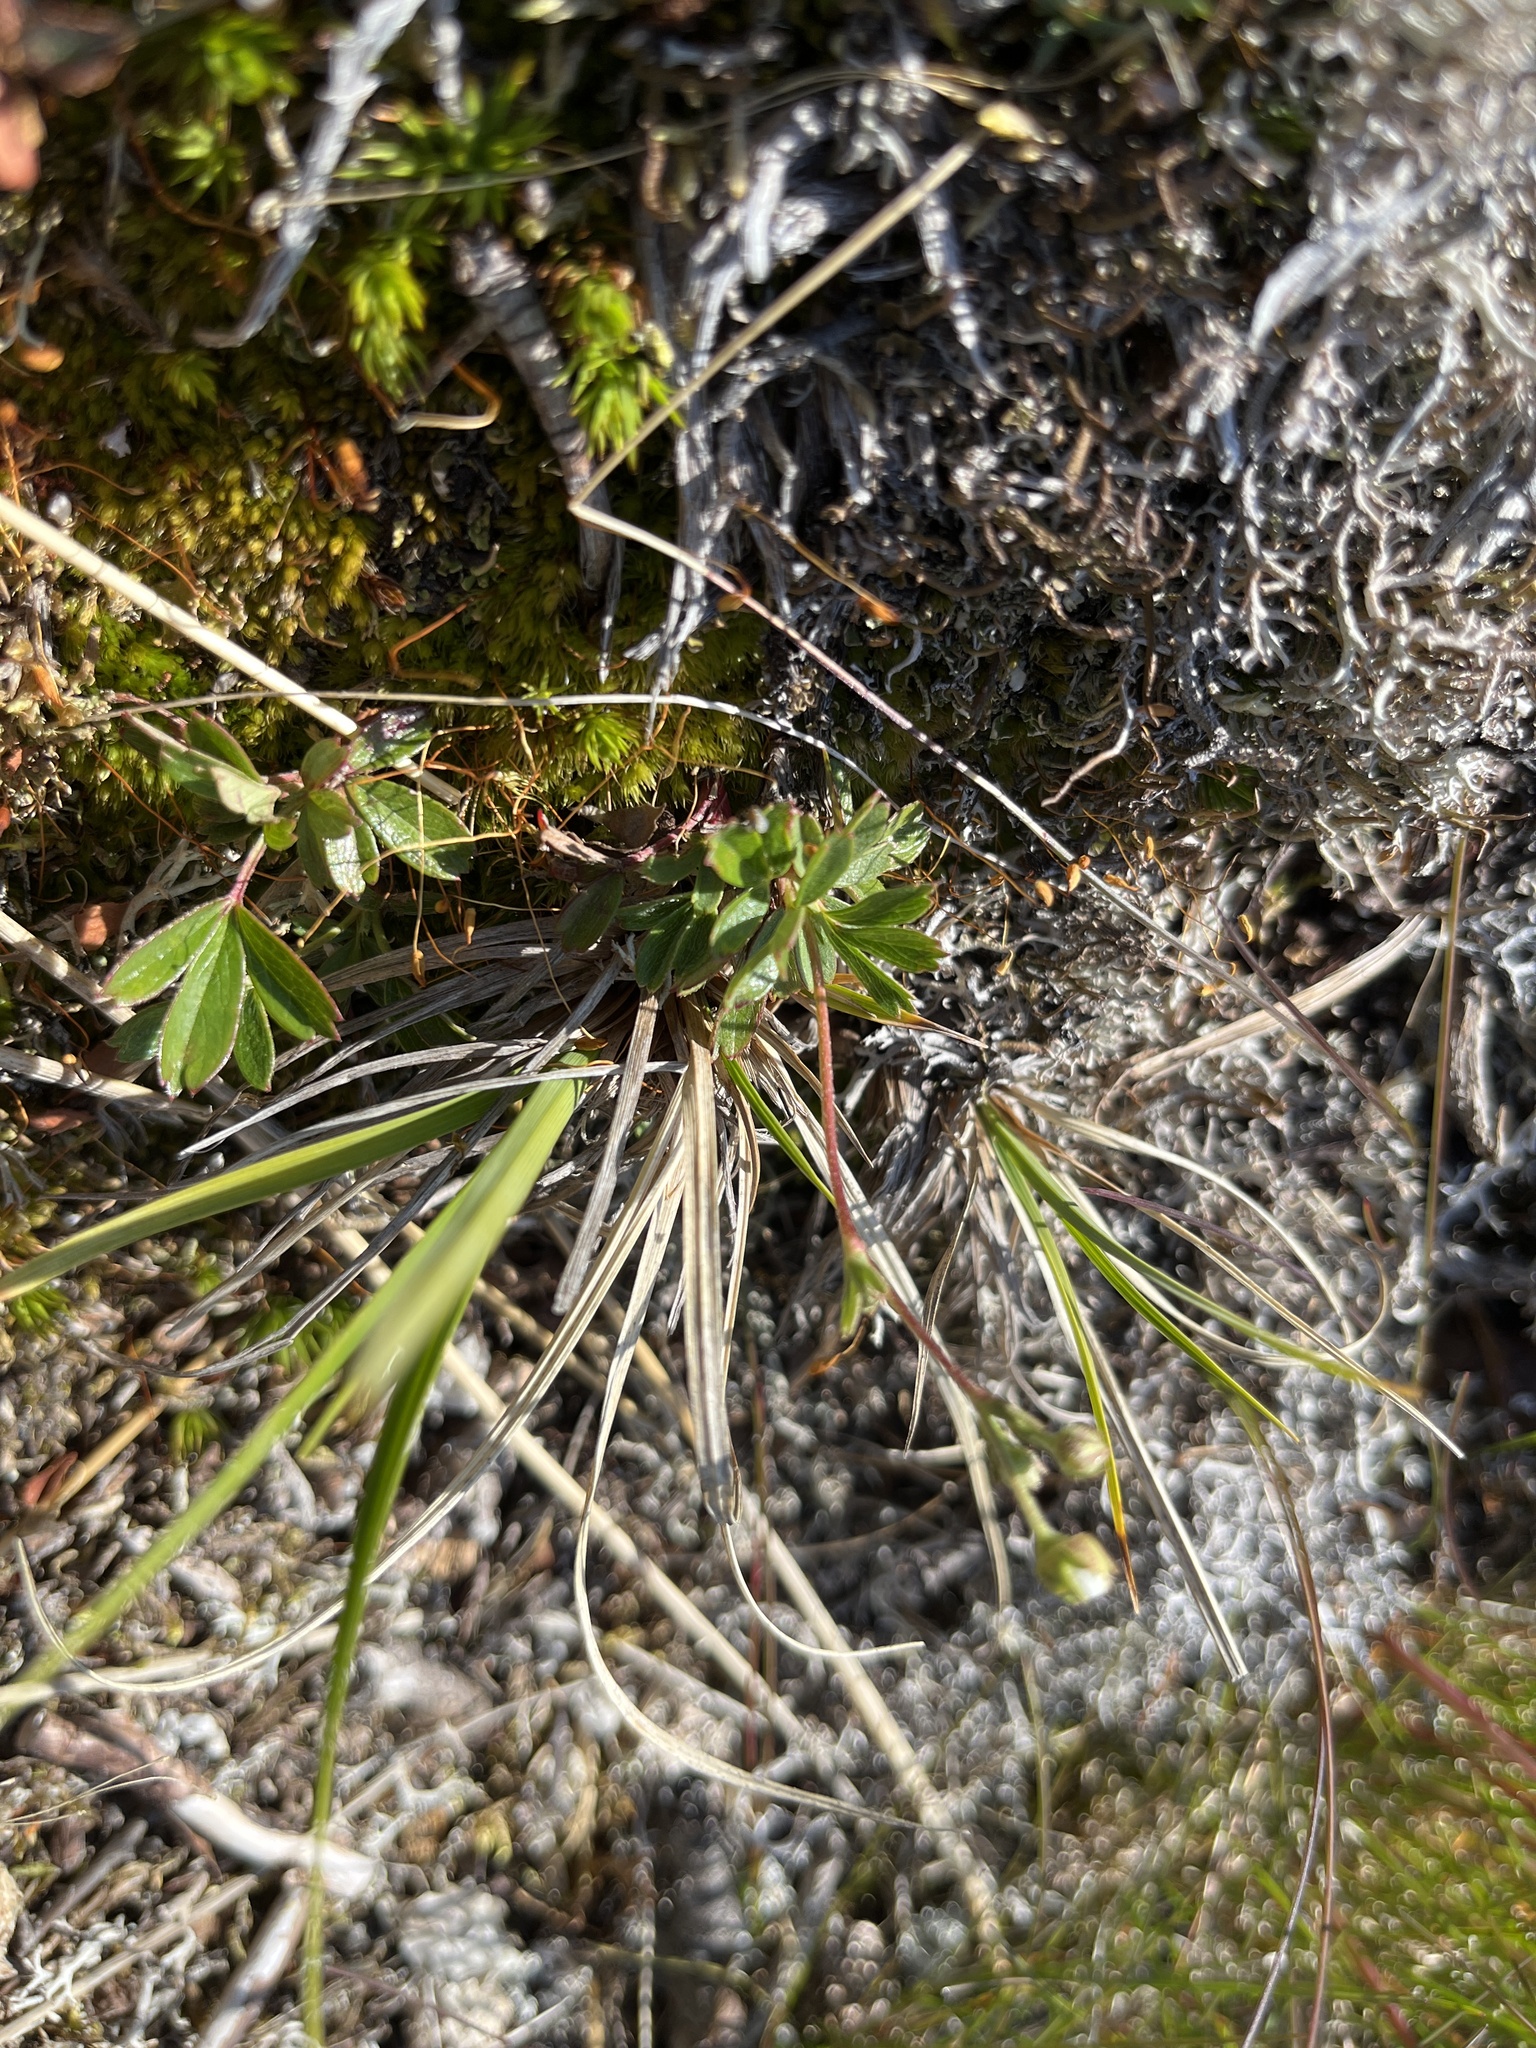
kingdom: Plantae
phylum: Tracheophyta
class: Magnoliopsida
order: Rosales
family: Rosaceae
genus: Sibbaldia
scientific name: Sibbaldia tridentata
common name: Three-toothed cinquefoil
